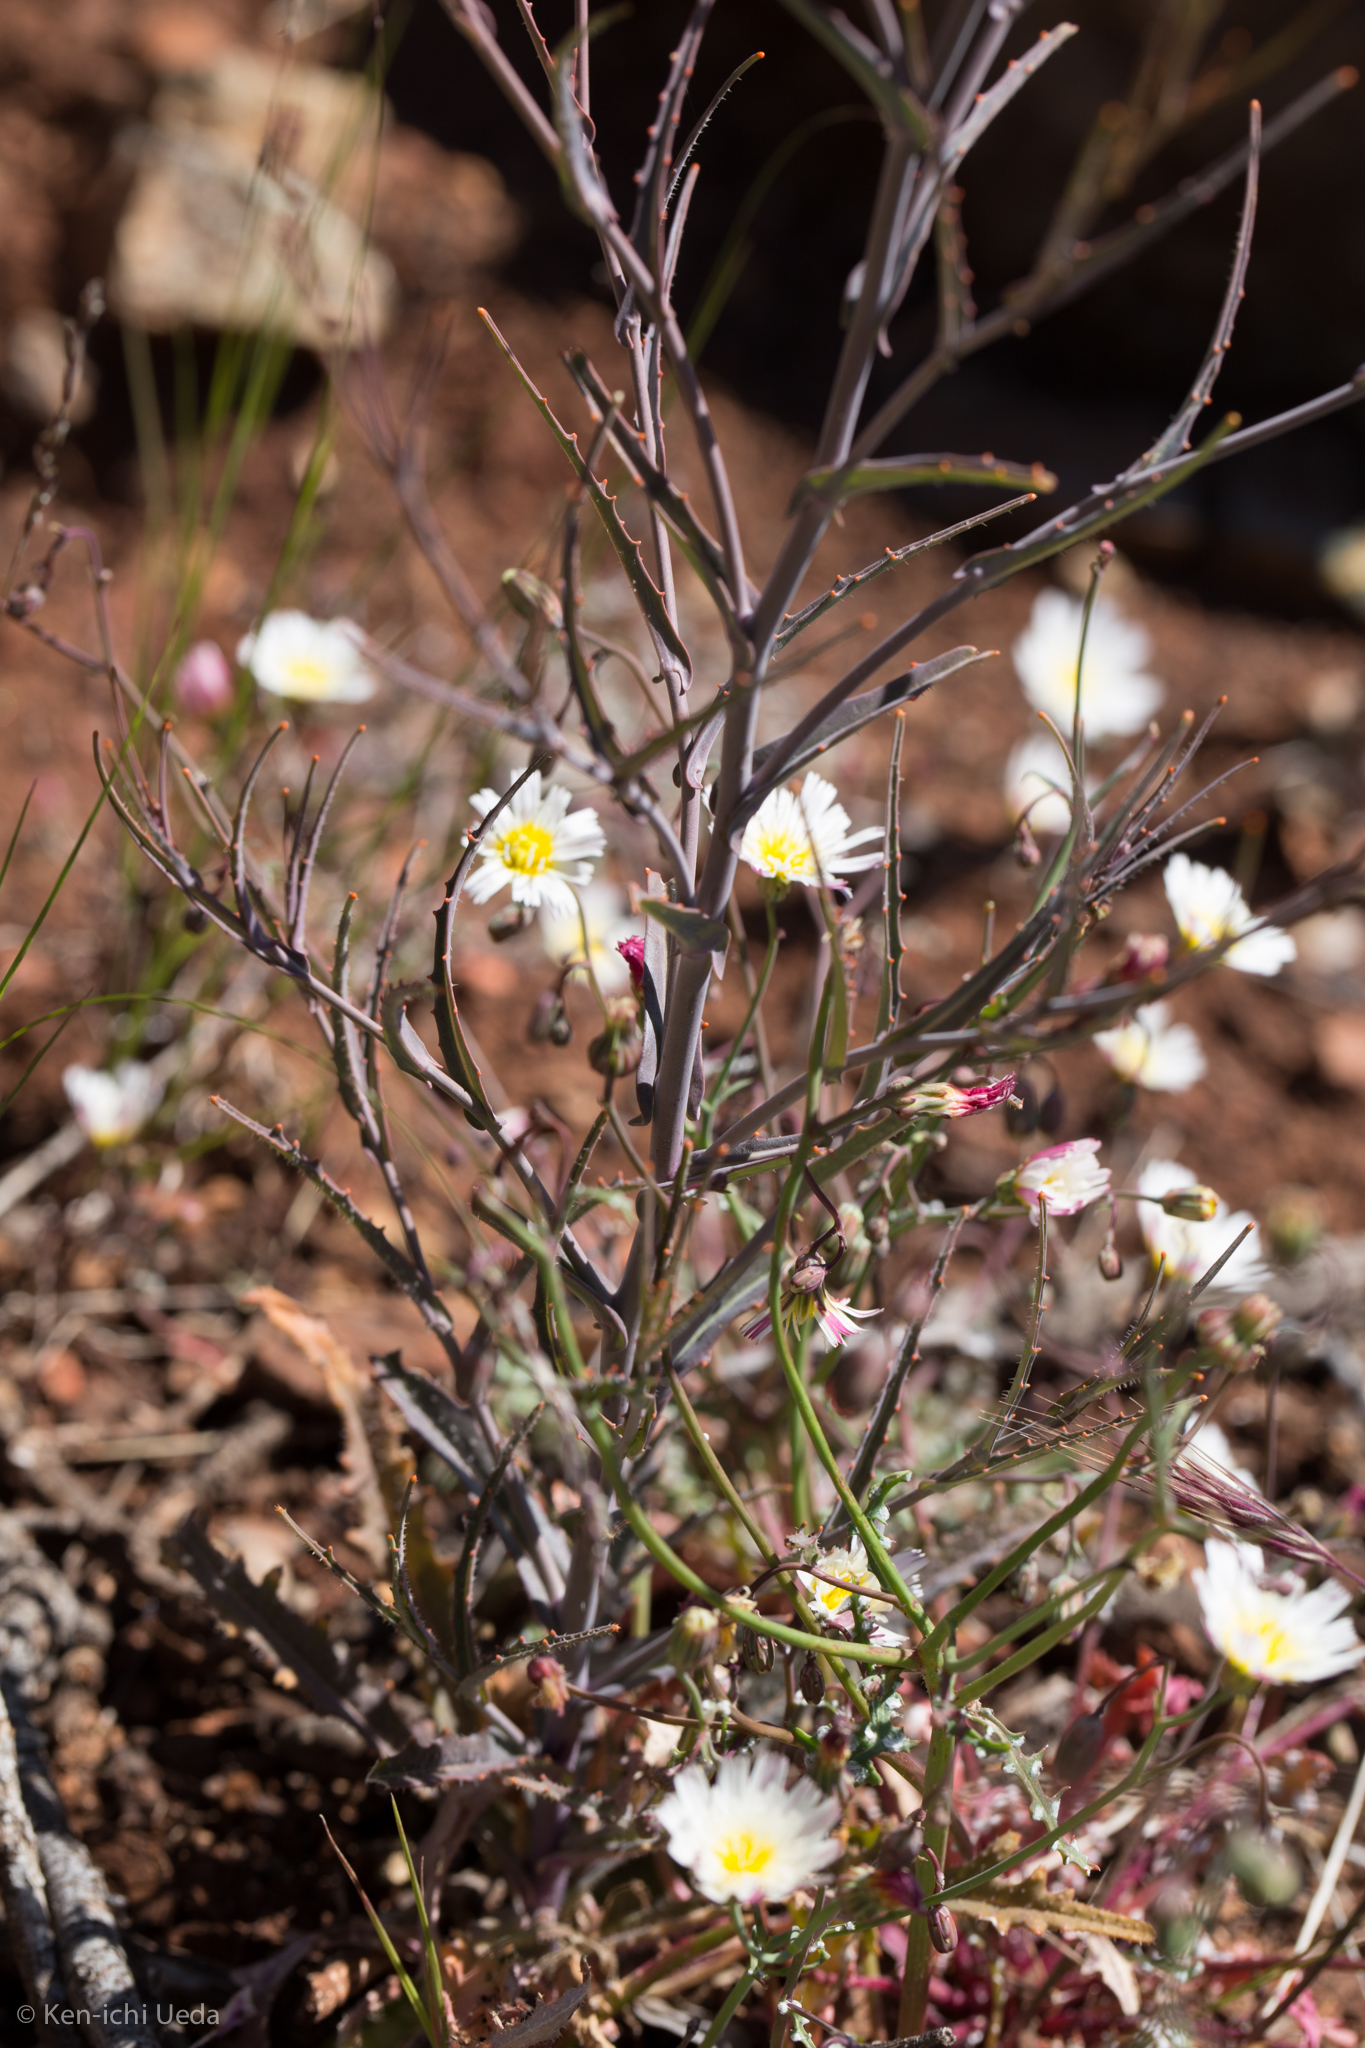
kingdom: Plantae
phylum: Tracheophyta
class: Magnoliopsida
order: Brassicales
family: Brassicaceae
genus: Streptanthus
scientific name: Streptanthus glandulosus
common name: Jewel-flower
